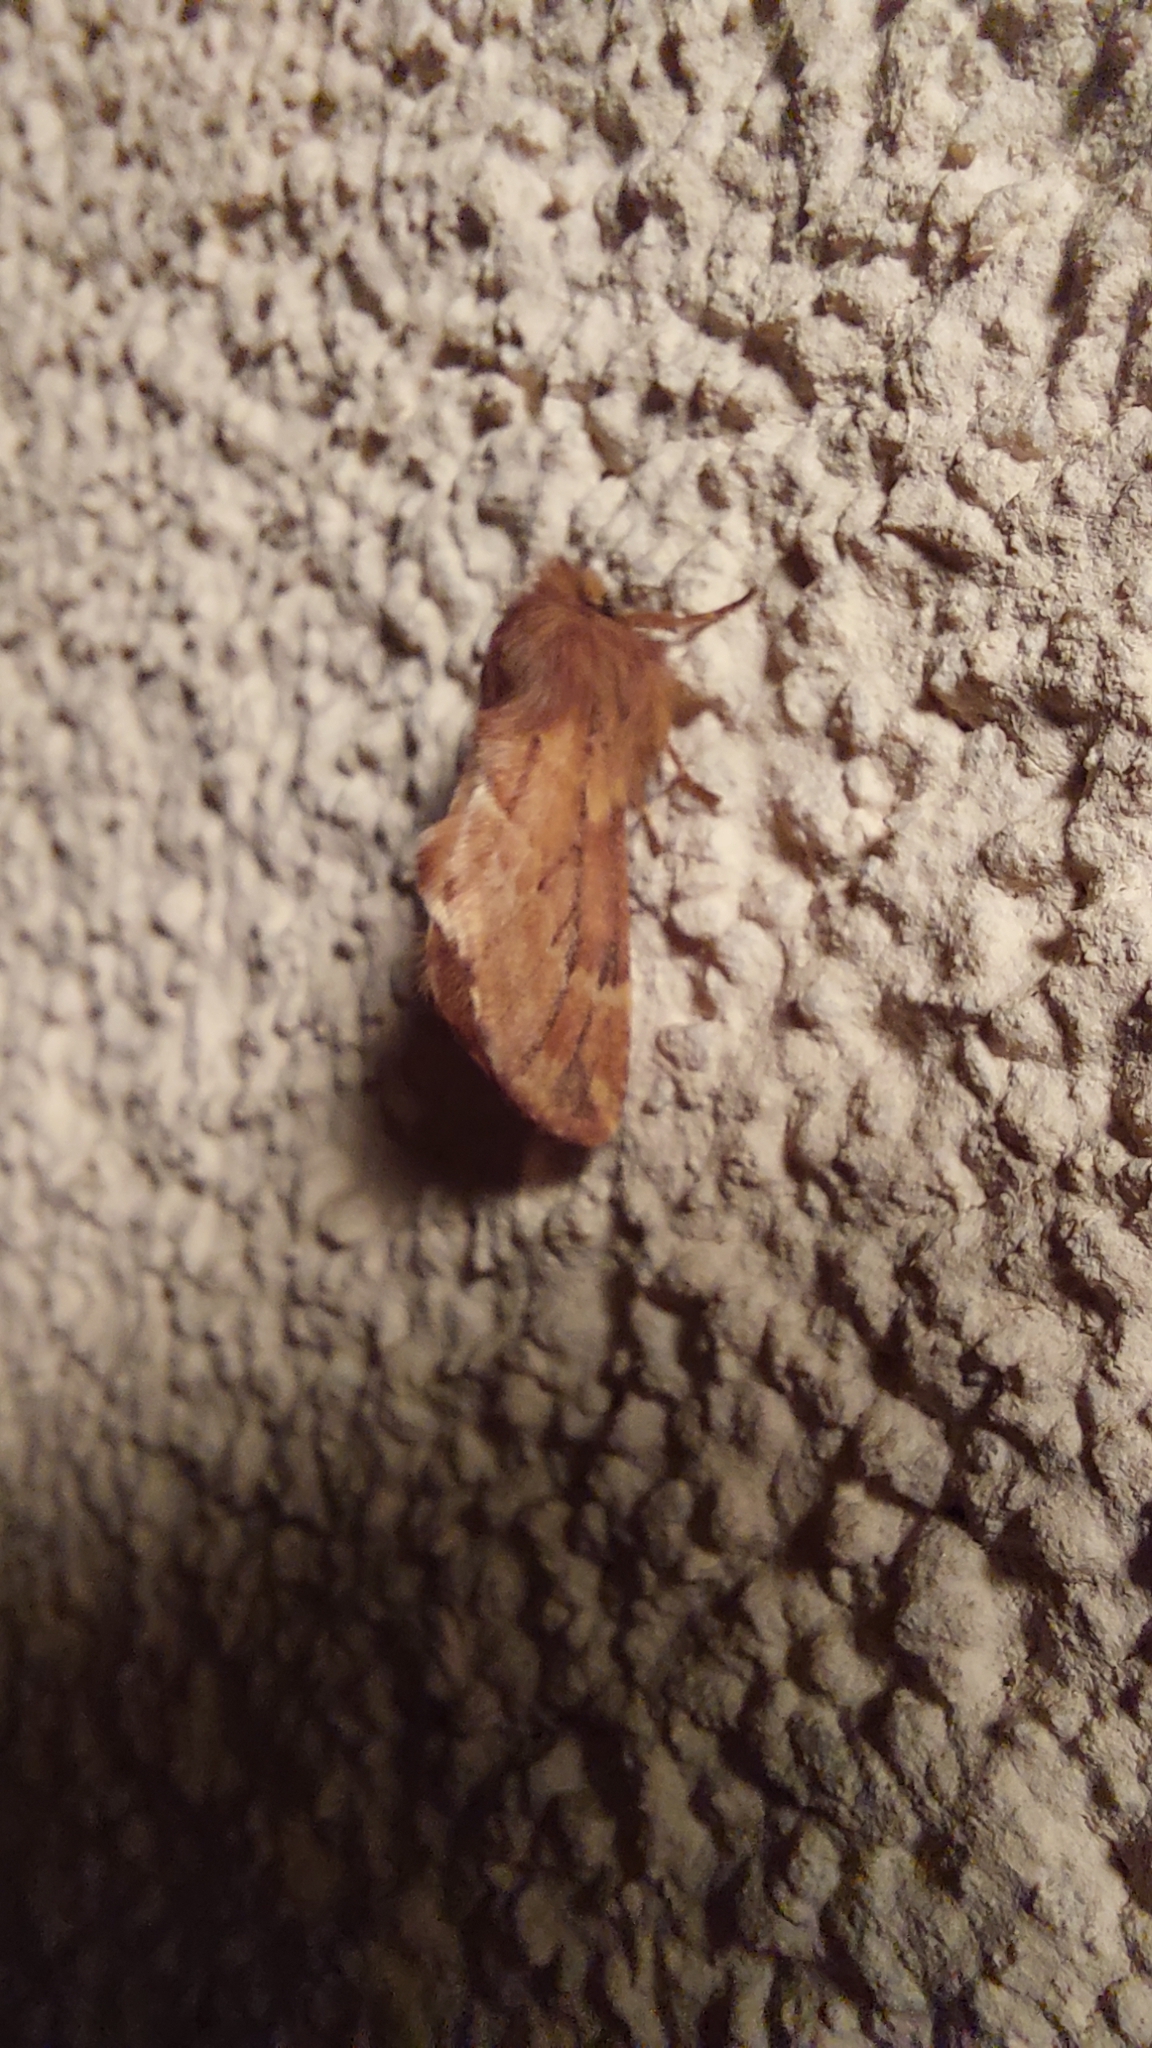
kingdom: Animalia
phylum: Arthropoda
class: Insecta
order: Lepidoptera
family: Notodontidae
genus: Ptilophora
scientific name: Ptilophora plumigera
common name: Plumed prominent
